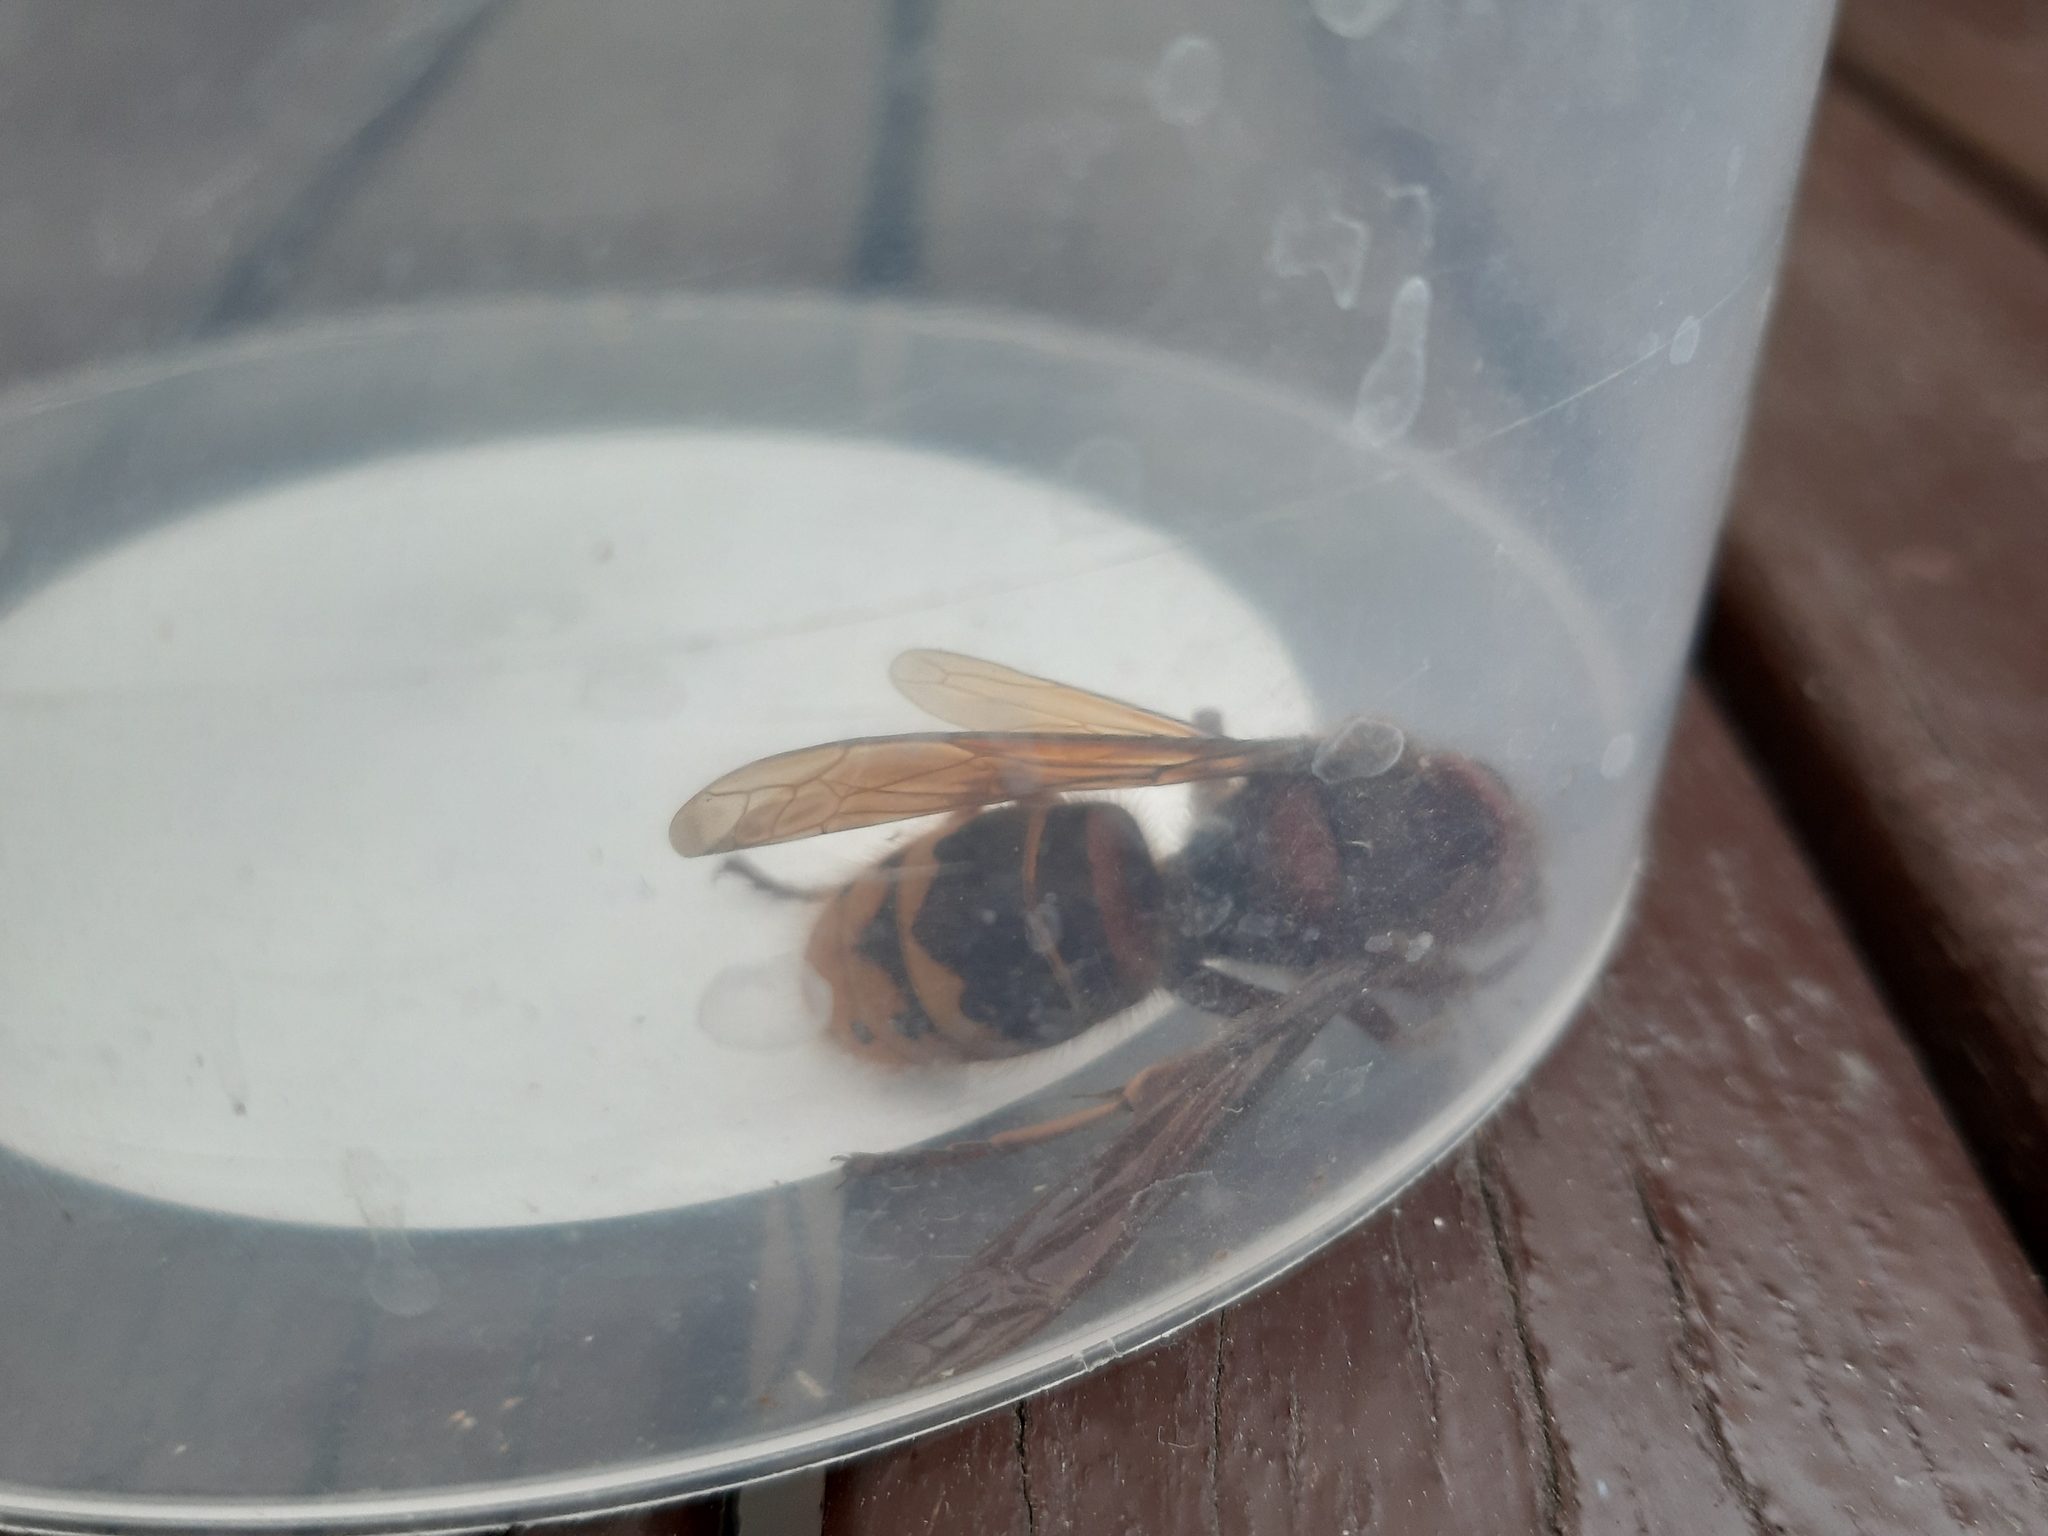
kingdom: Animalia
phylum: Arthropoda
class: Insecta
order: Hymenoptera
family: Vespidae
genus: Vespa
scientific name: Vespa crabro
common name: Hornet
